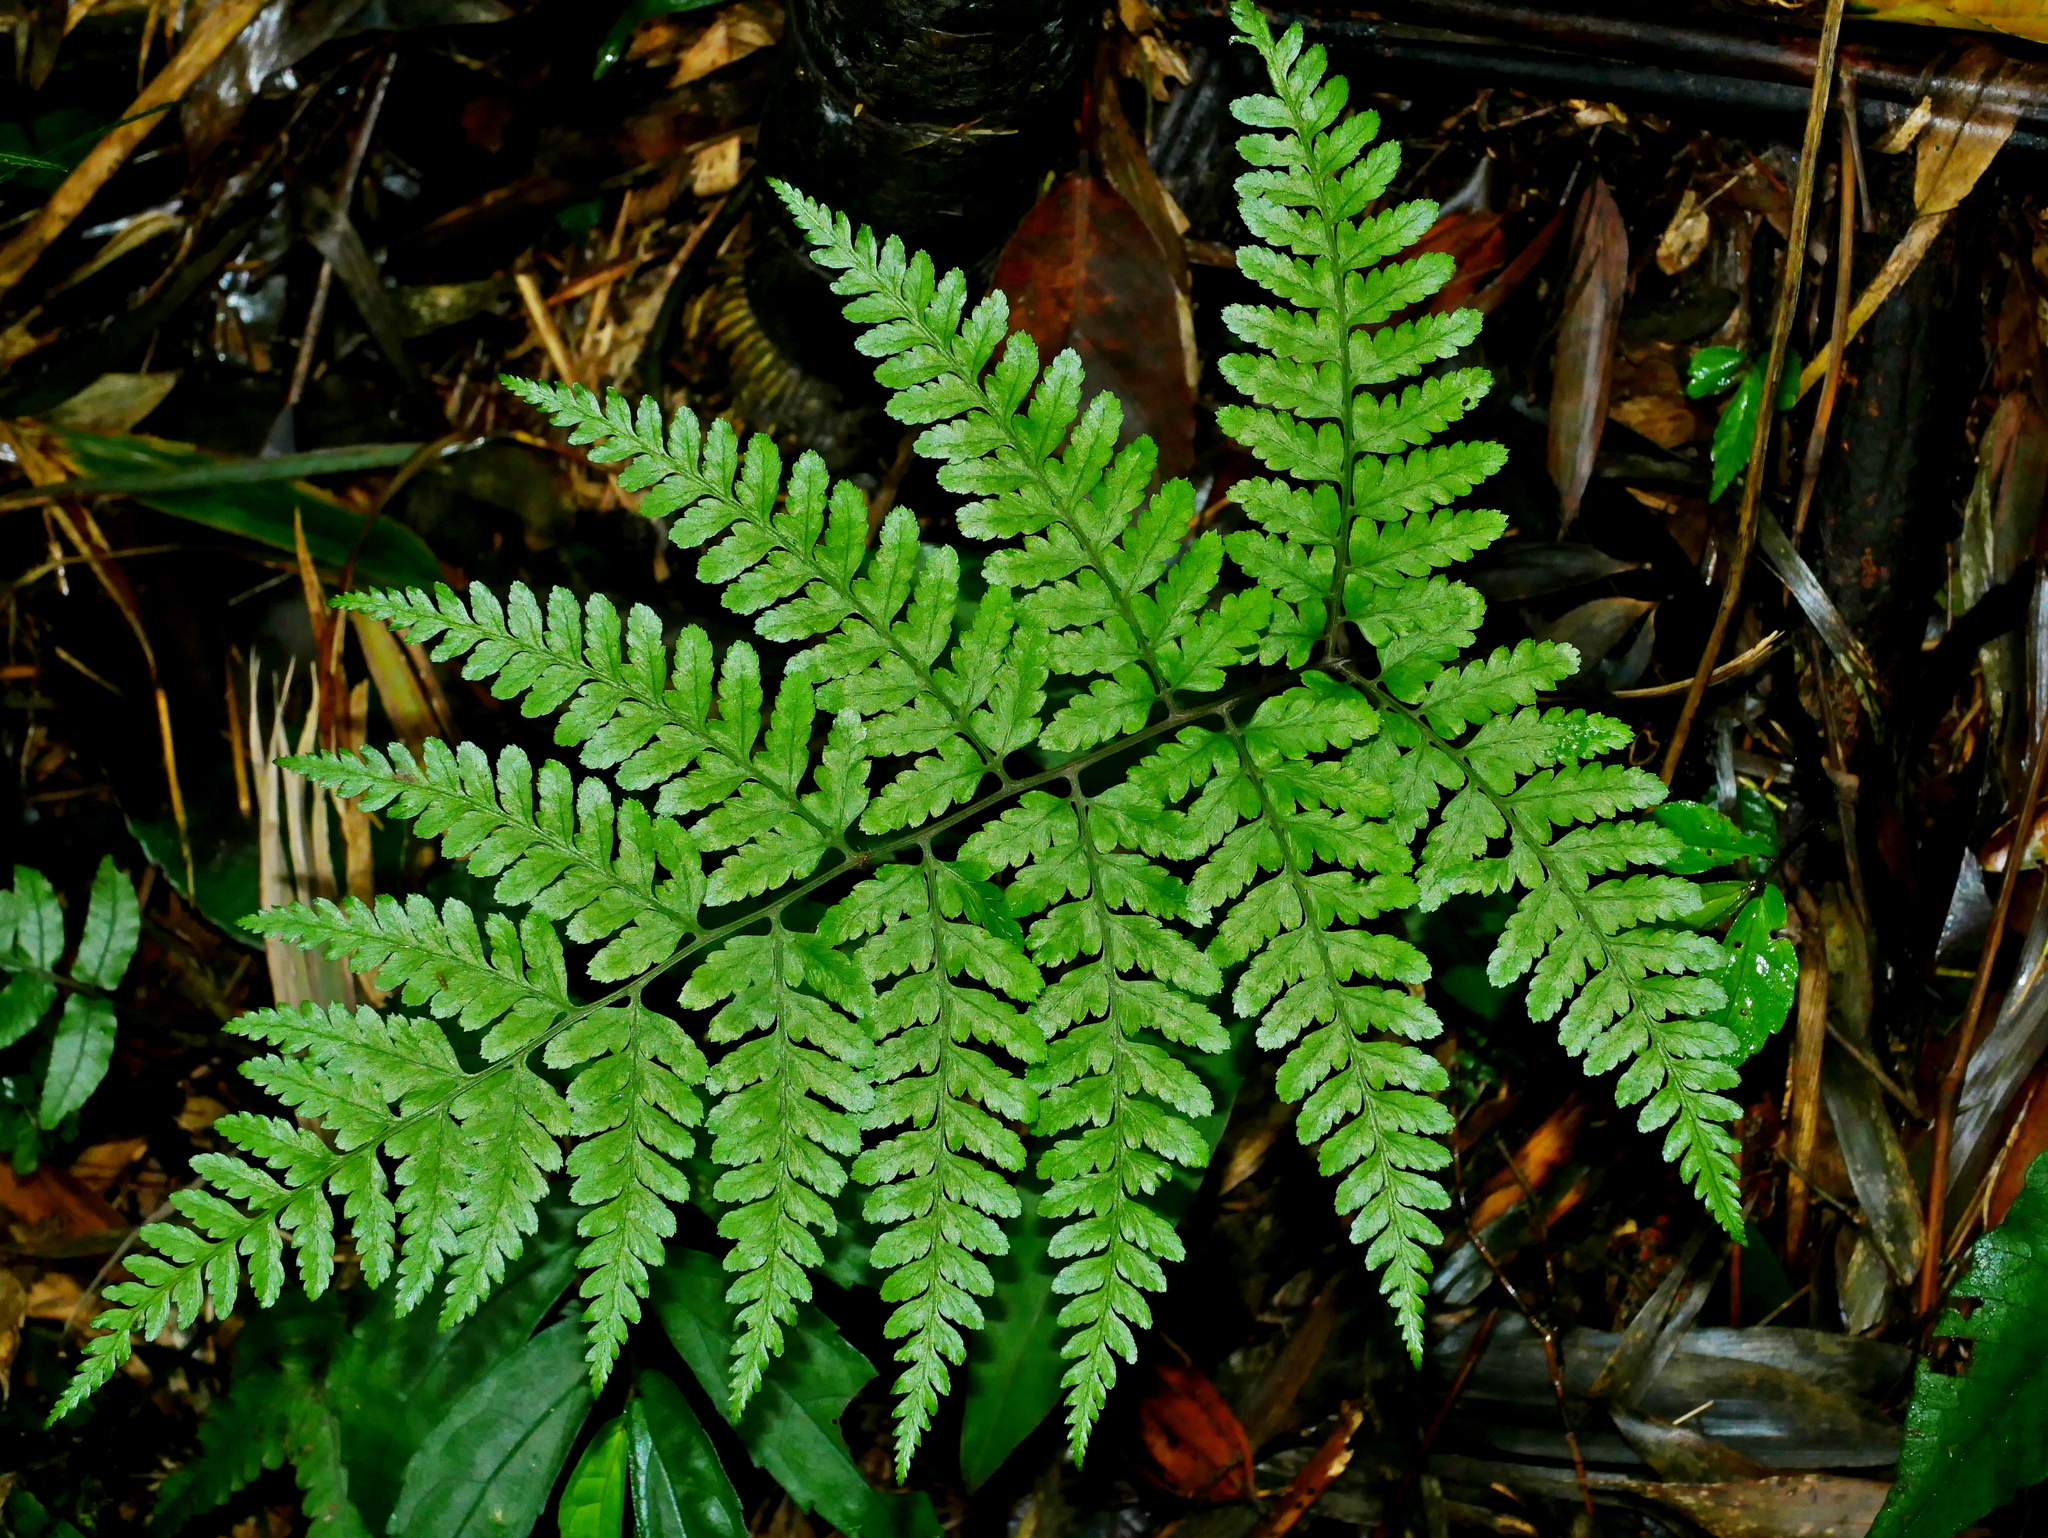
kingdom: Plantae
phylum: Tracheophyta
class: Polypodiopsida
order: Polypodiales
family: Athyriaceae
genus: Athyrium
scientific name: Athyrium arisanense
